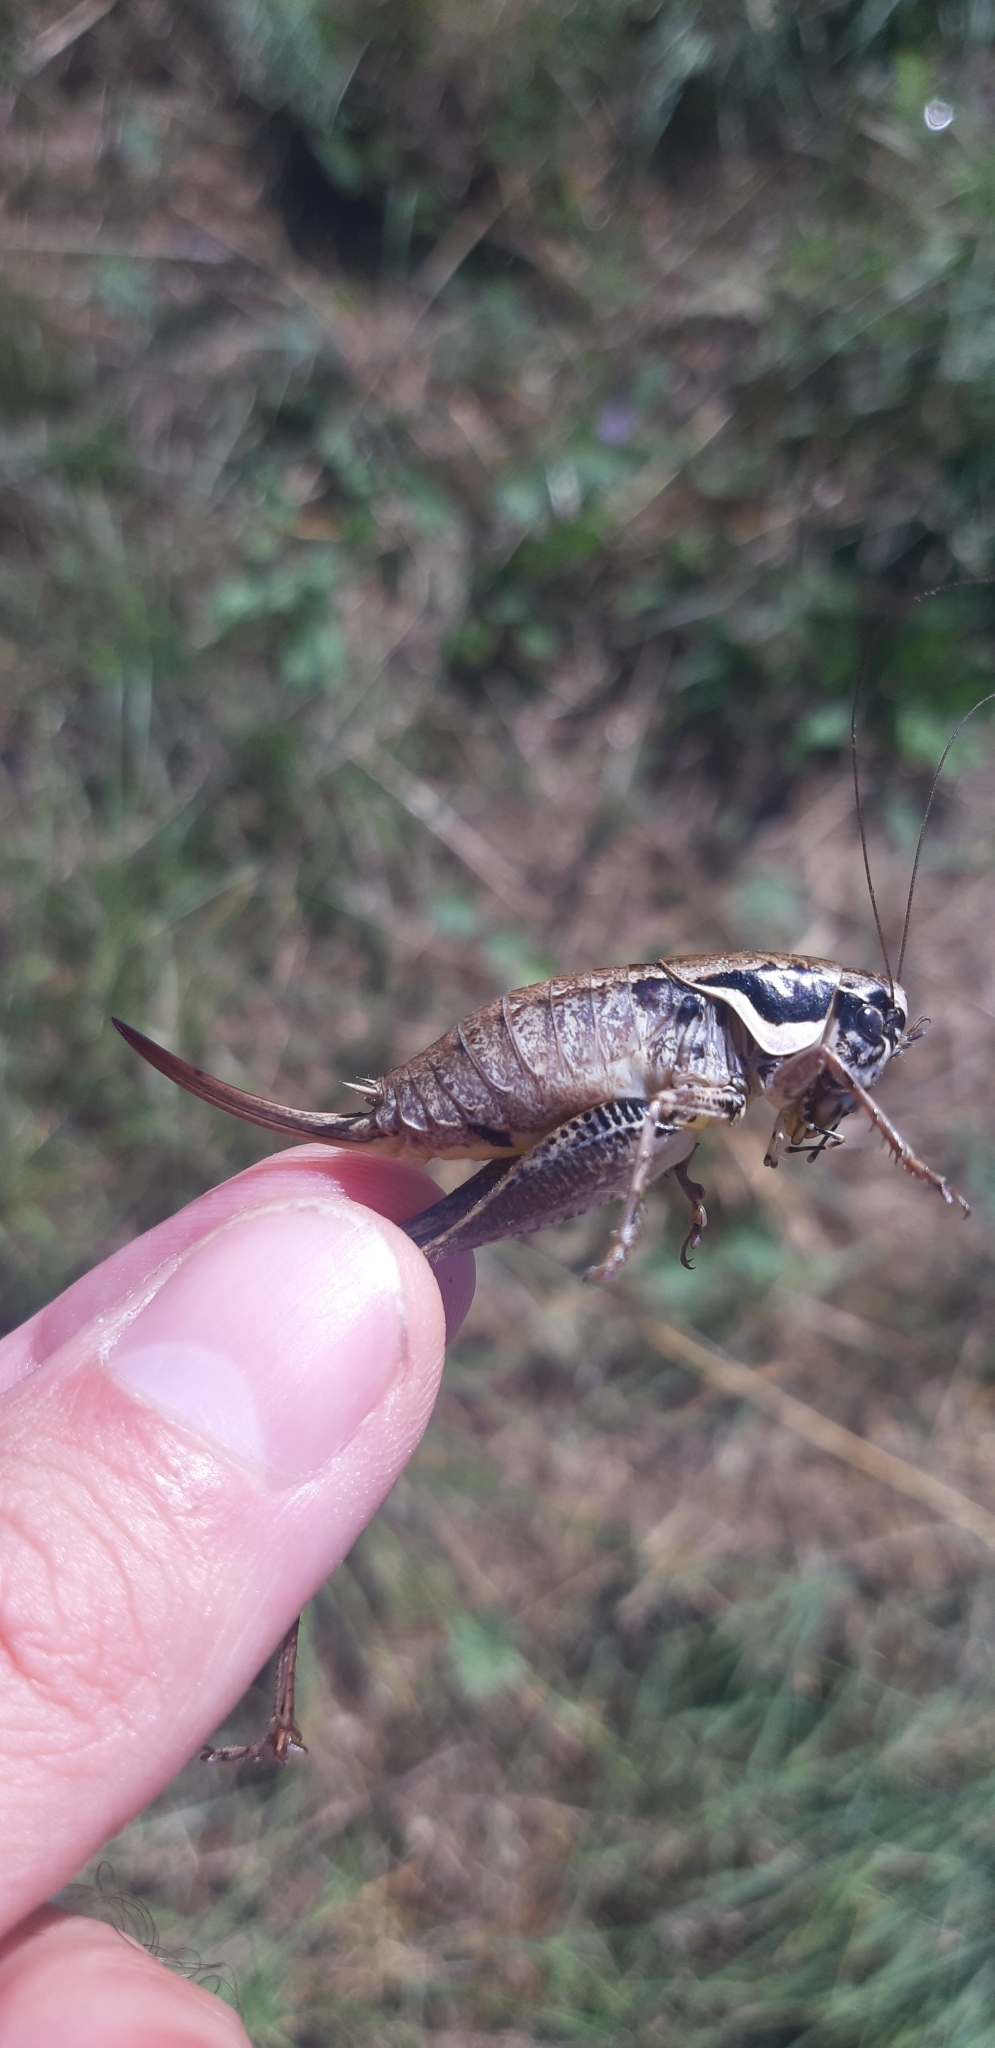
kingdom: Animalia
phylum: Arthropoda
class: Insecta
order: Orthoptera
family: Tettigoniidae
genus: Pholidoptera
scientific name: Pholidoptera fallax
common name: Fischer's bush-cricket
